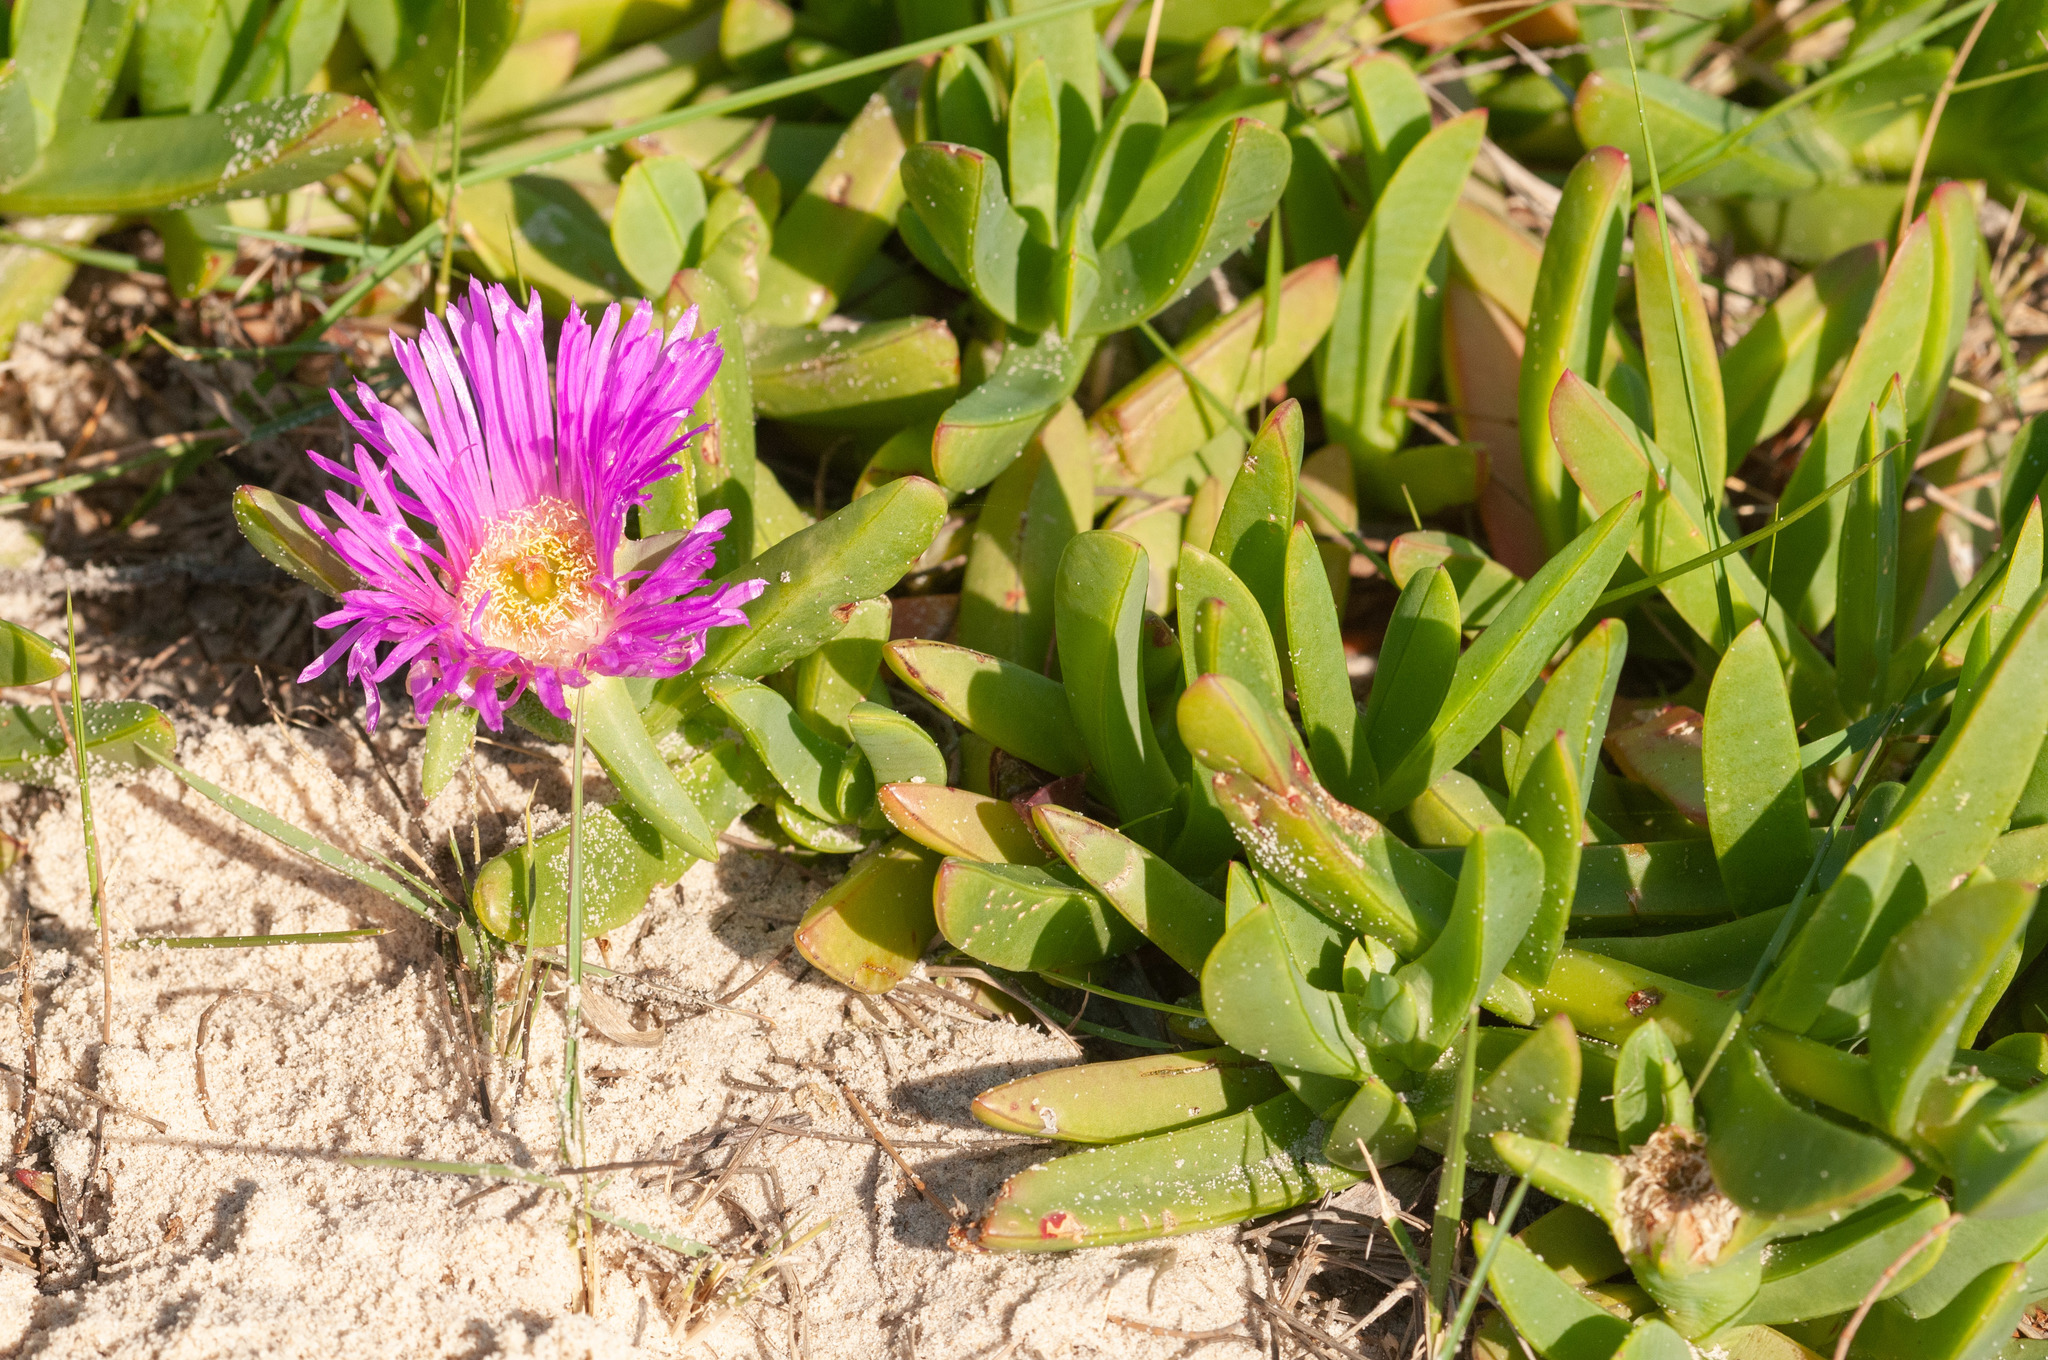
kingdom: Plantae
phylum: Tracheophyta
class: Magnoliopsida
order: Caryophyllales
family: Aizoaceae
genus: Carpobrotus
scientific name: Carpobrotus glaucescens
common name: Angular sea-fig
